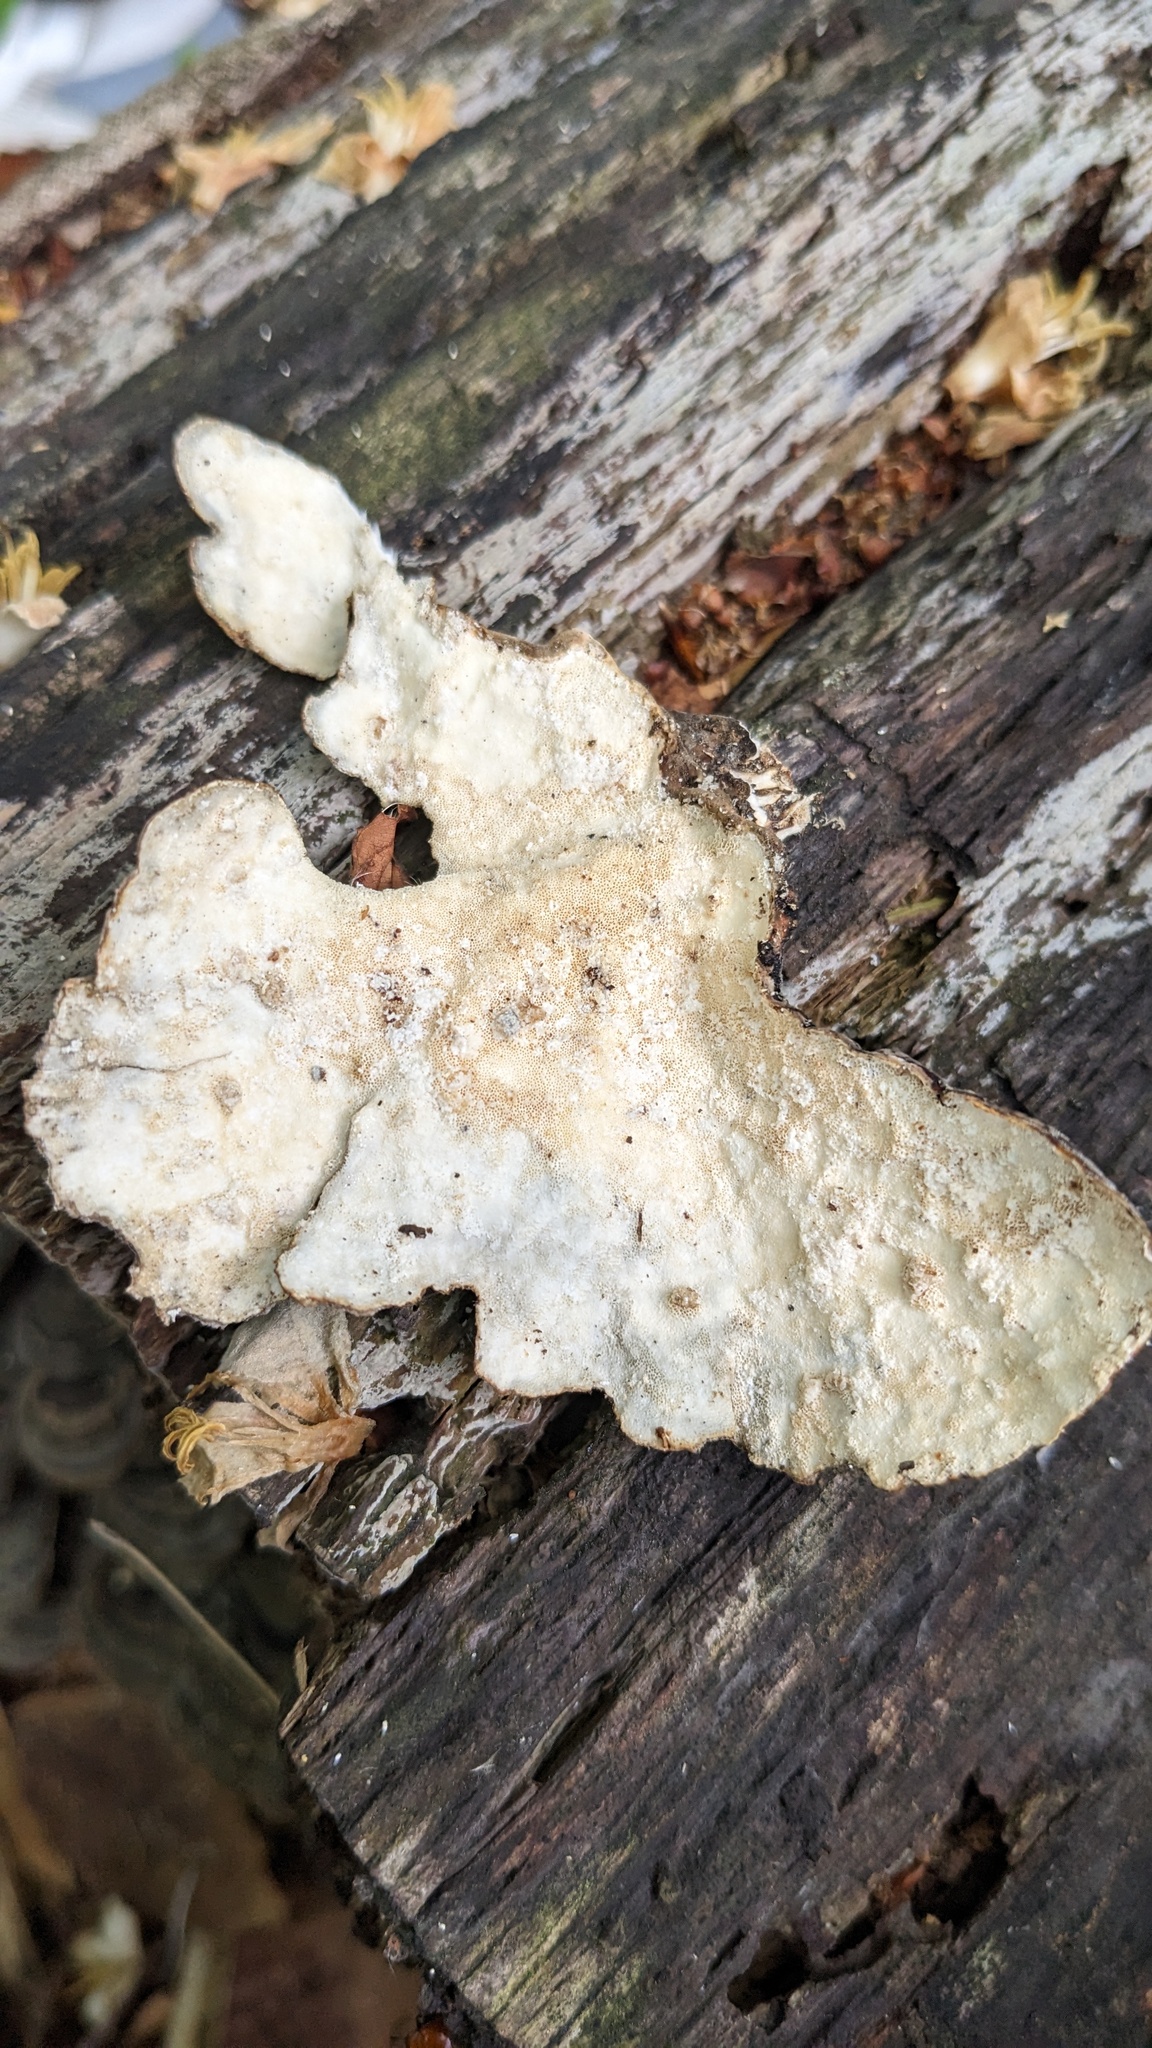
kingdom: Fungi
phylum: Basidiomycota
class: Agaricomycetes
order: Polyporales
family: Polyporaceae
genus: Trametes
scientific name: Trametes versicolor
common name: Turkeytail
